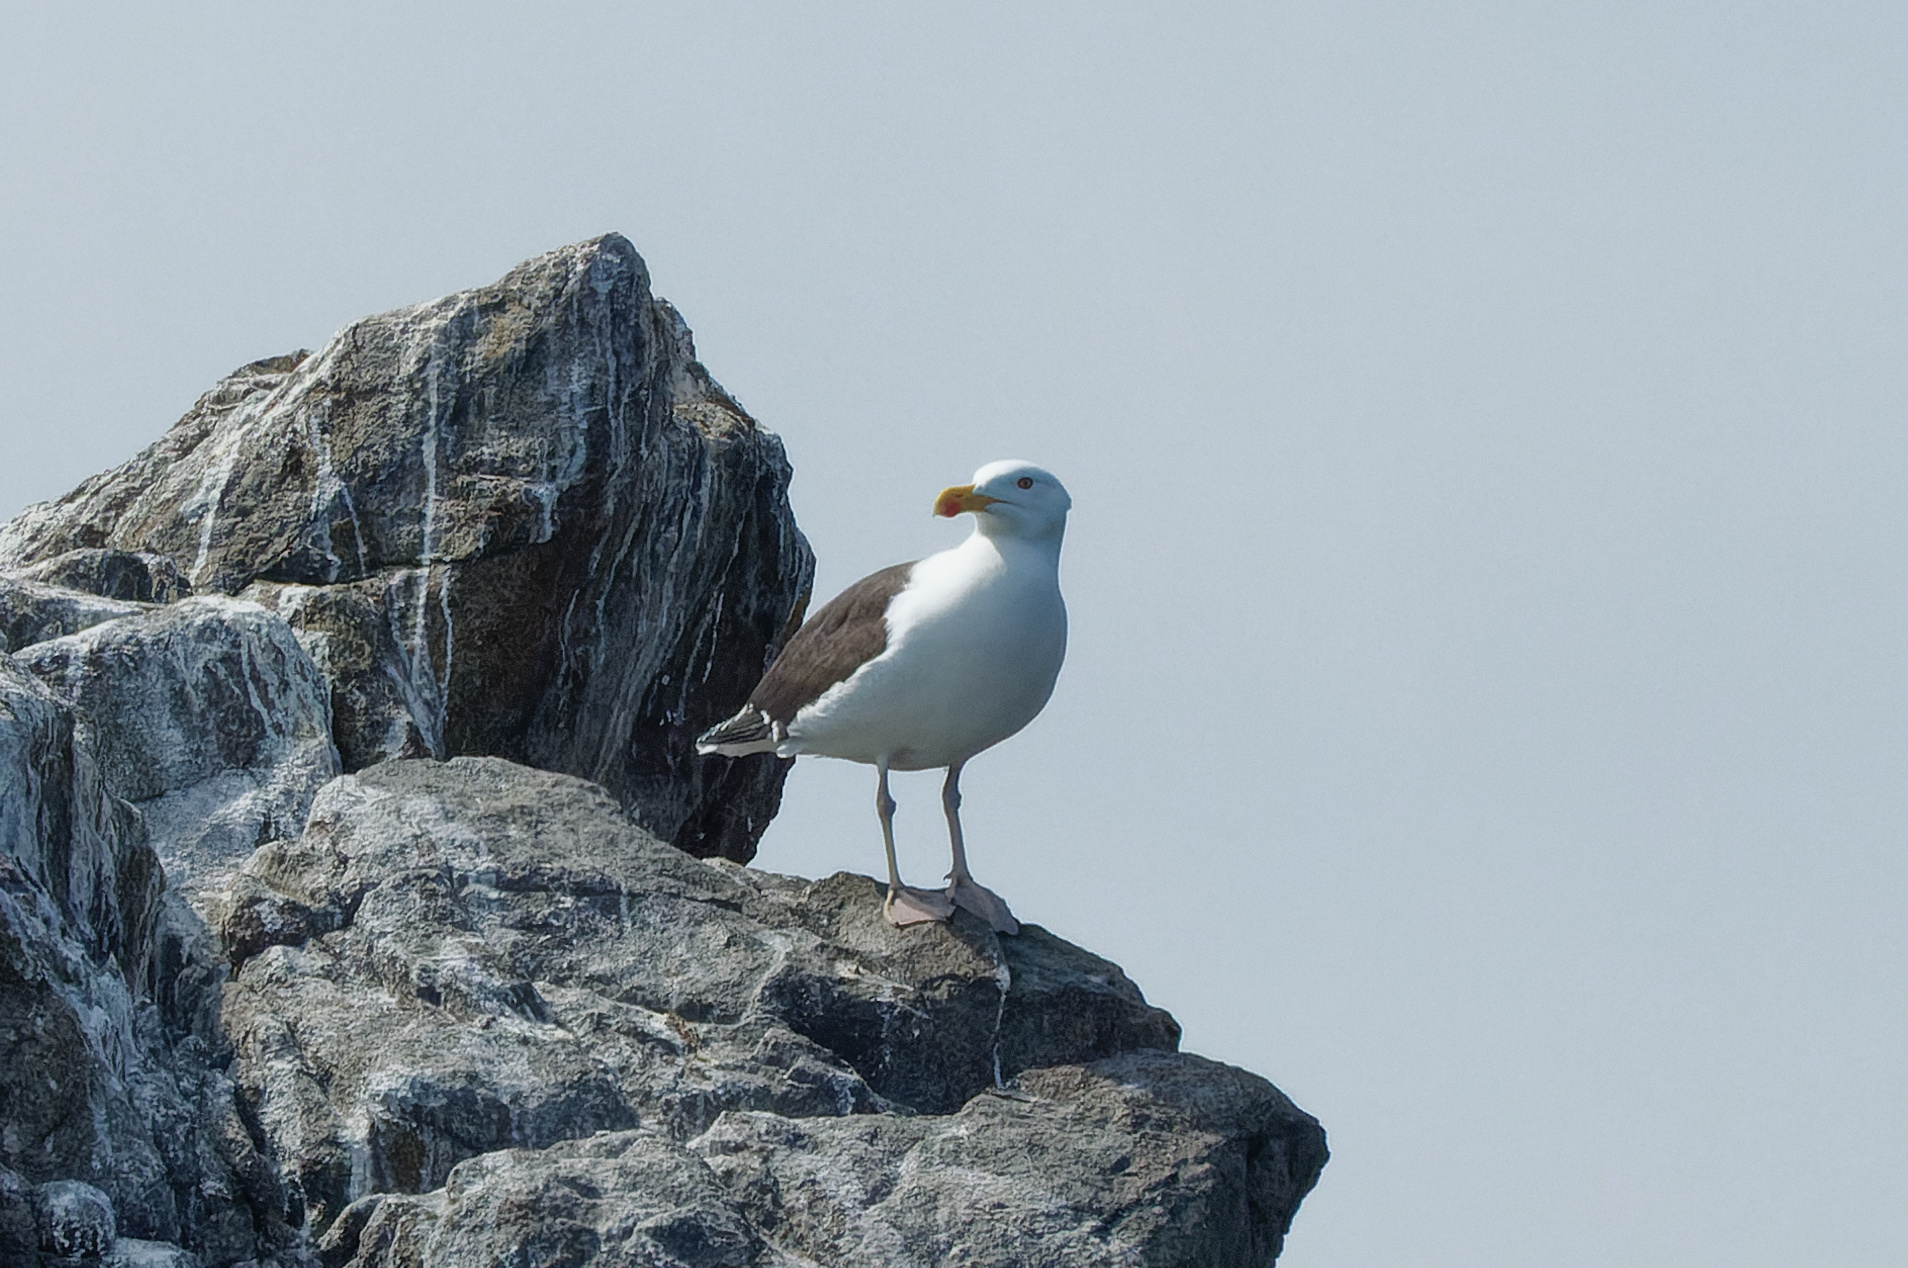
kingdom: Animalia
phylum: Chordata
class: Aves
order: Charadriiformes
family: Laridae
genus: Larus
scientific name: Larus marinus
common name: Great black-backed gull
